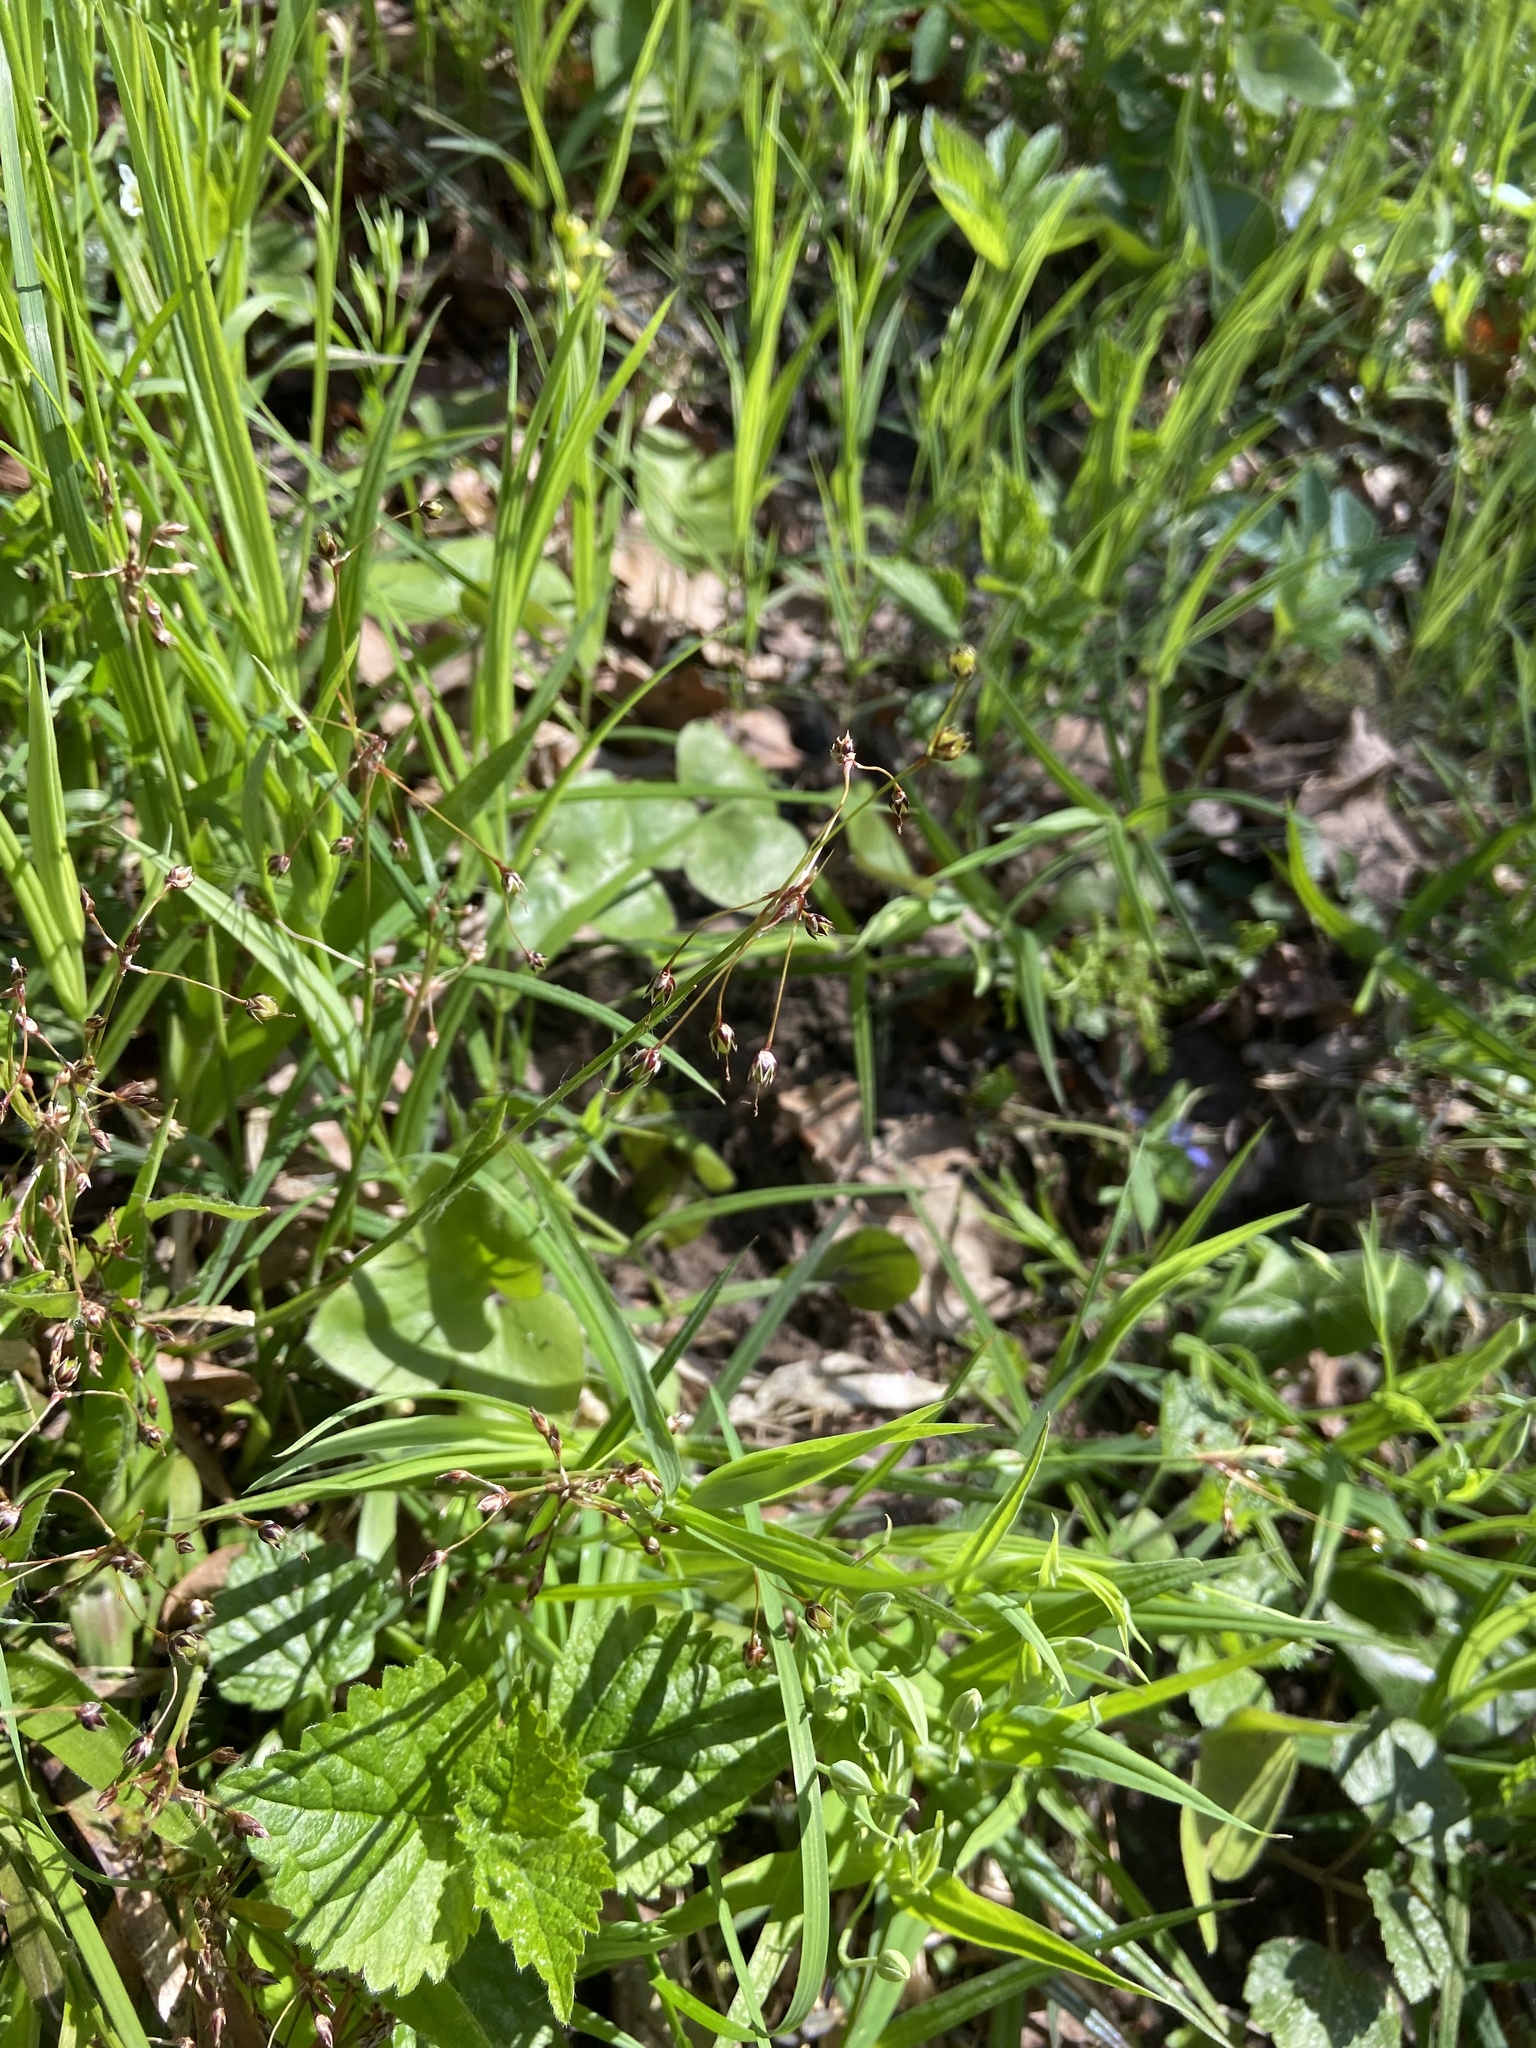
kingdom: Plantae
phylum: Tracheophyta
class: Liliopsida
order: Poales
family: Juncaceae
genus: Luzula
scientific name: Luzula pilosa
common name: Hairy wood-rush
